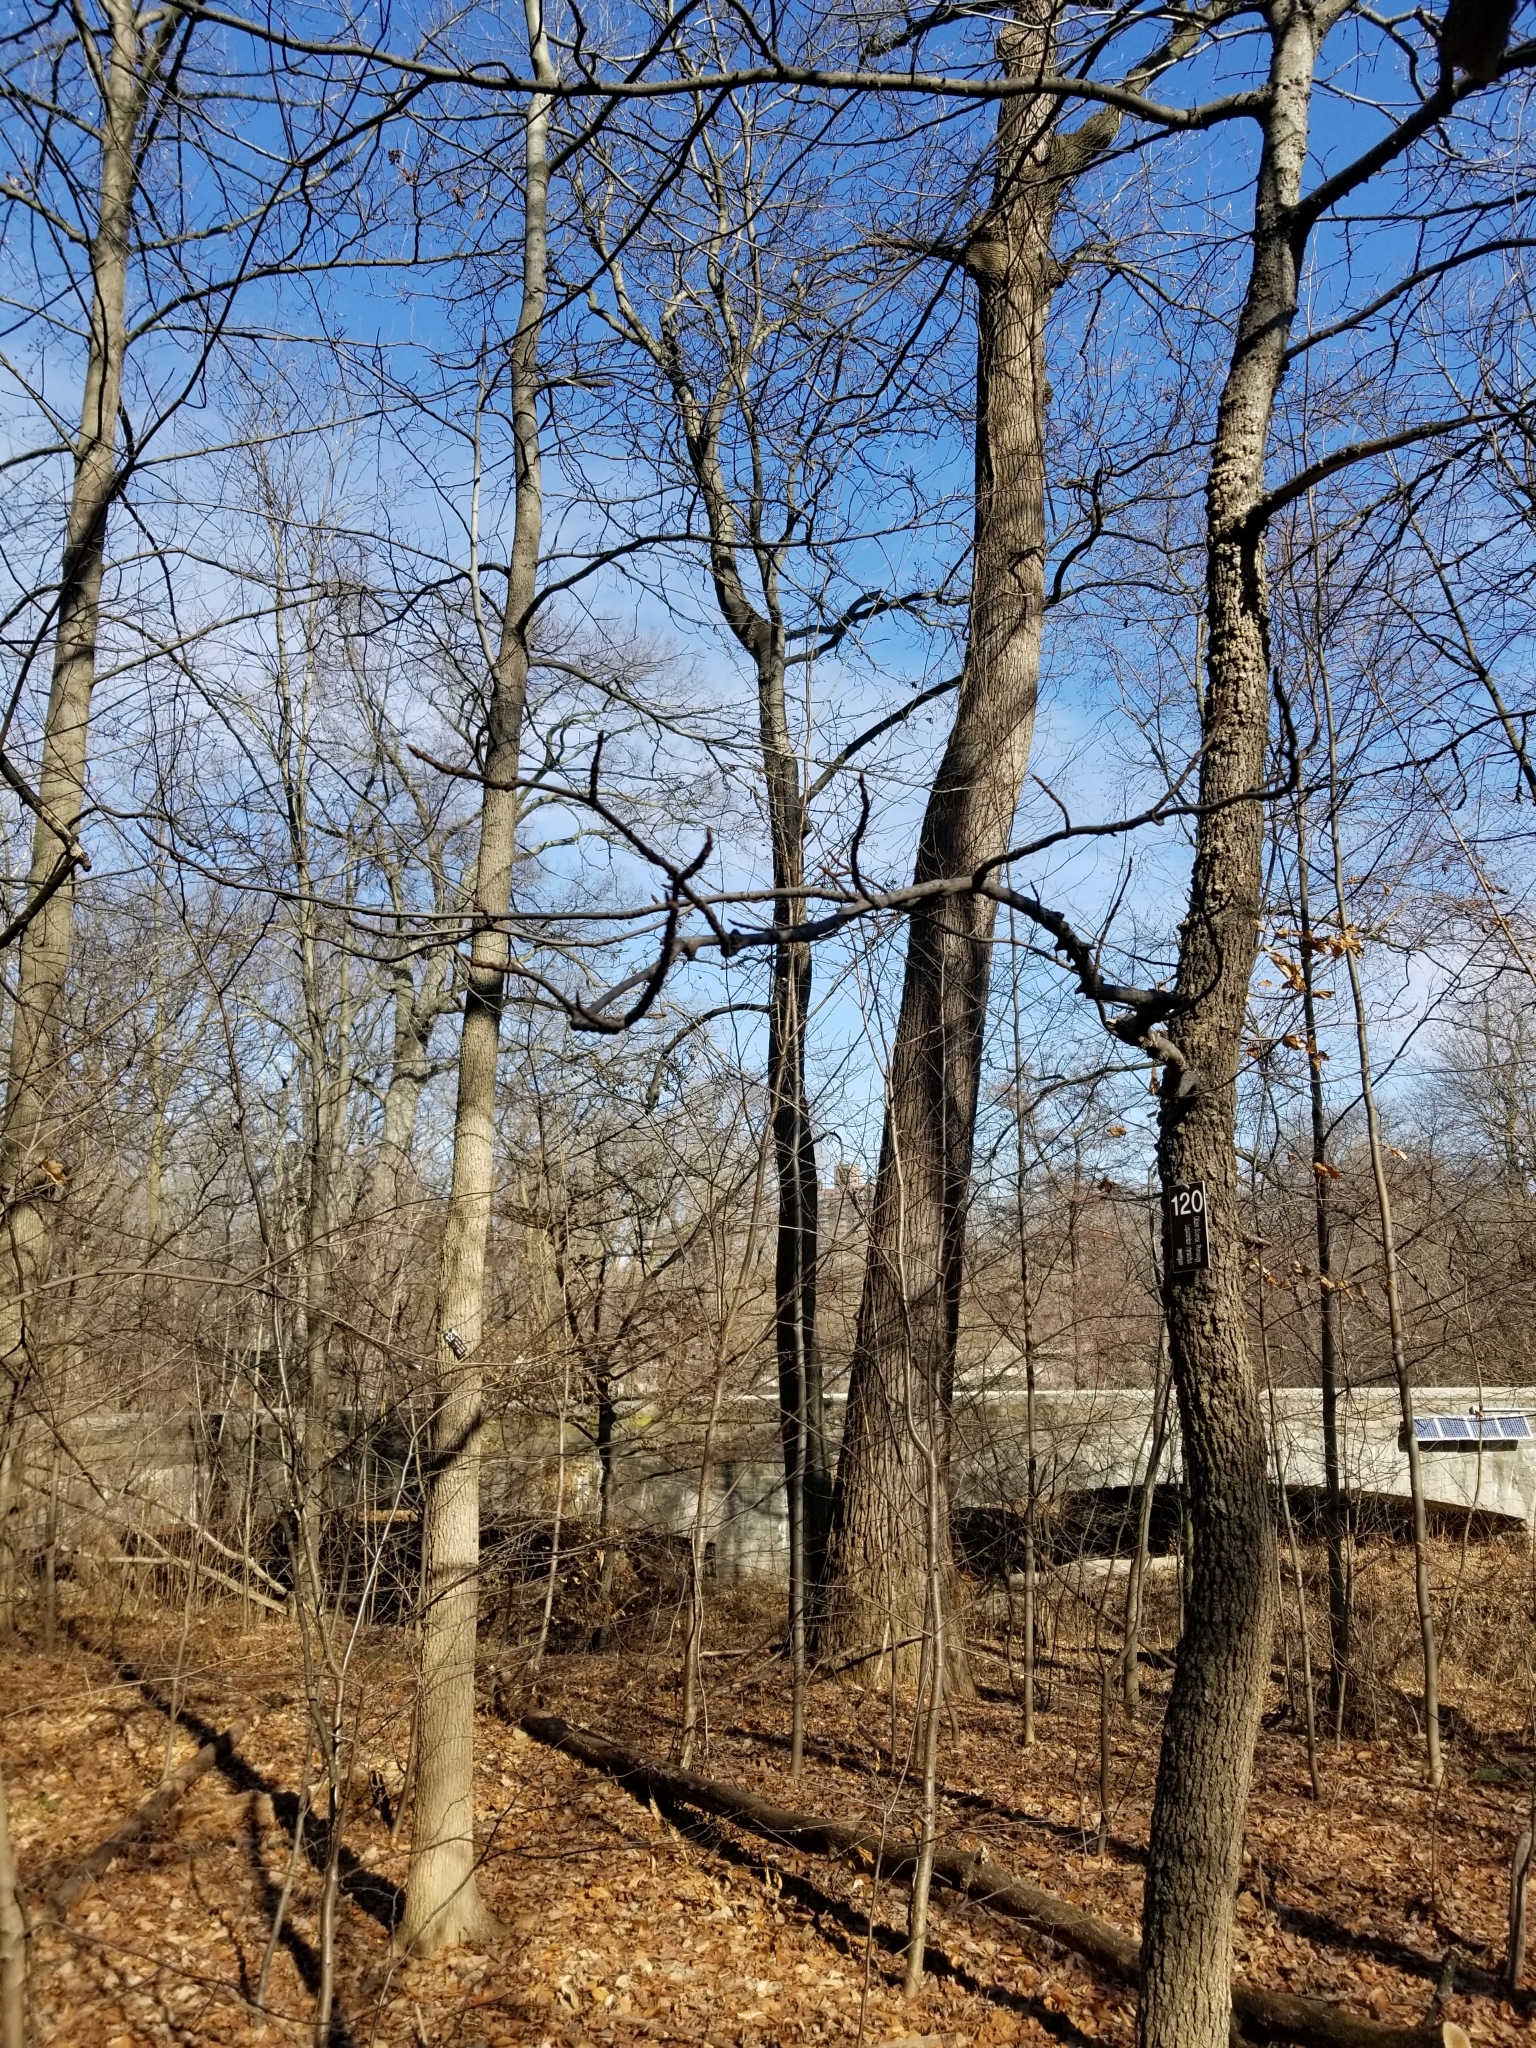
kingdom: Plantae
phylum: Tracheophyta
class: Magnoliopsida
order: Saxifragales
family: Altingiaceae
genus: Liquidambar
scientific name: Liquidambar styraciflua
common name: Sweet gum
